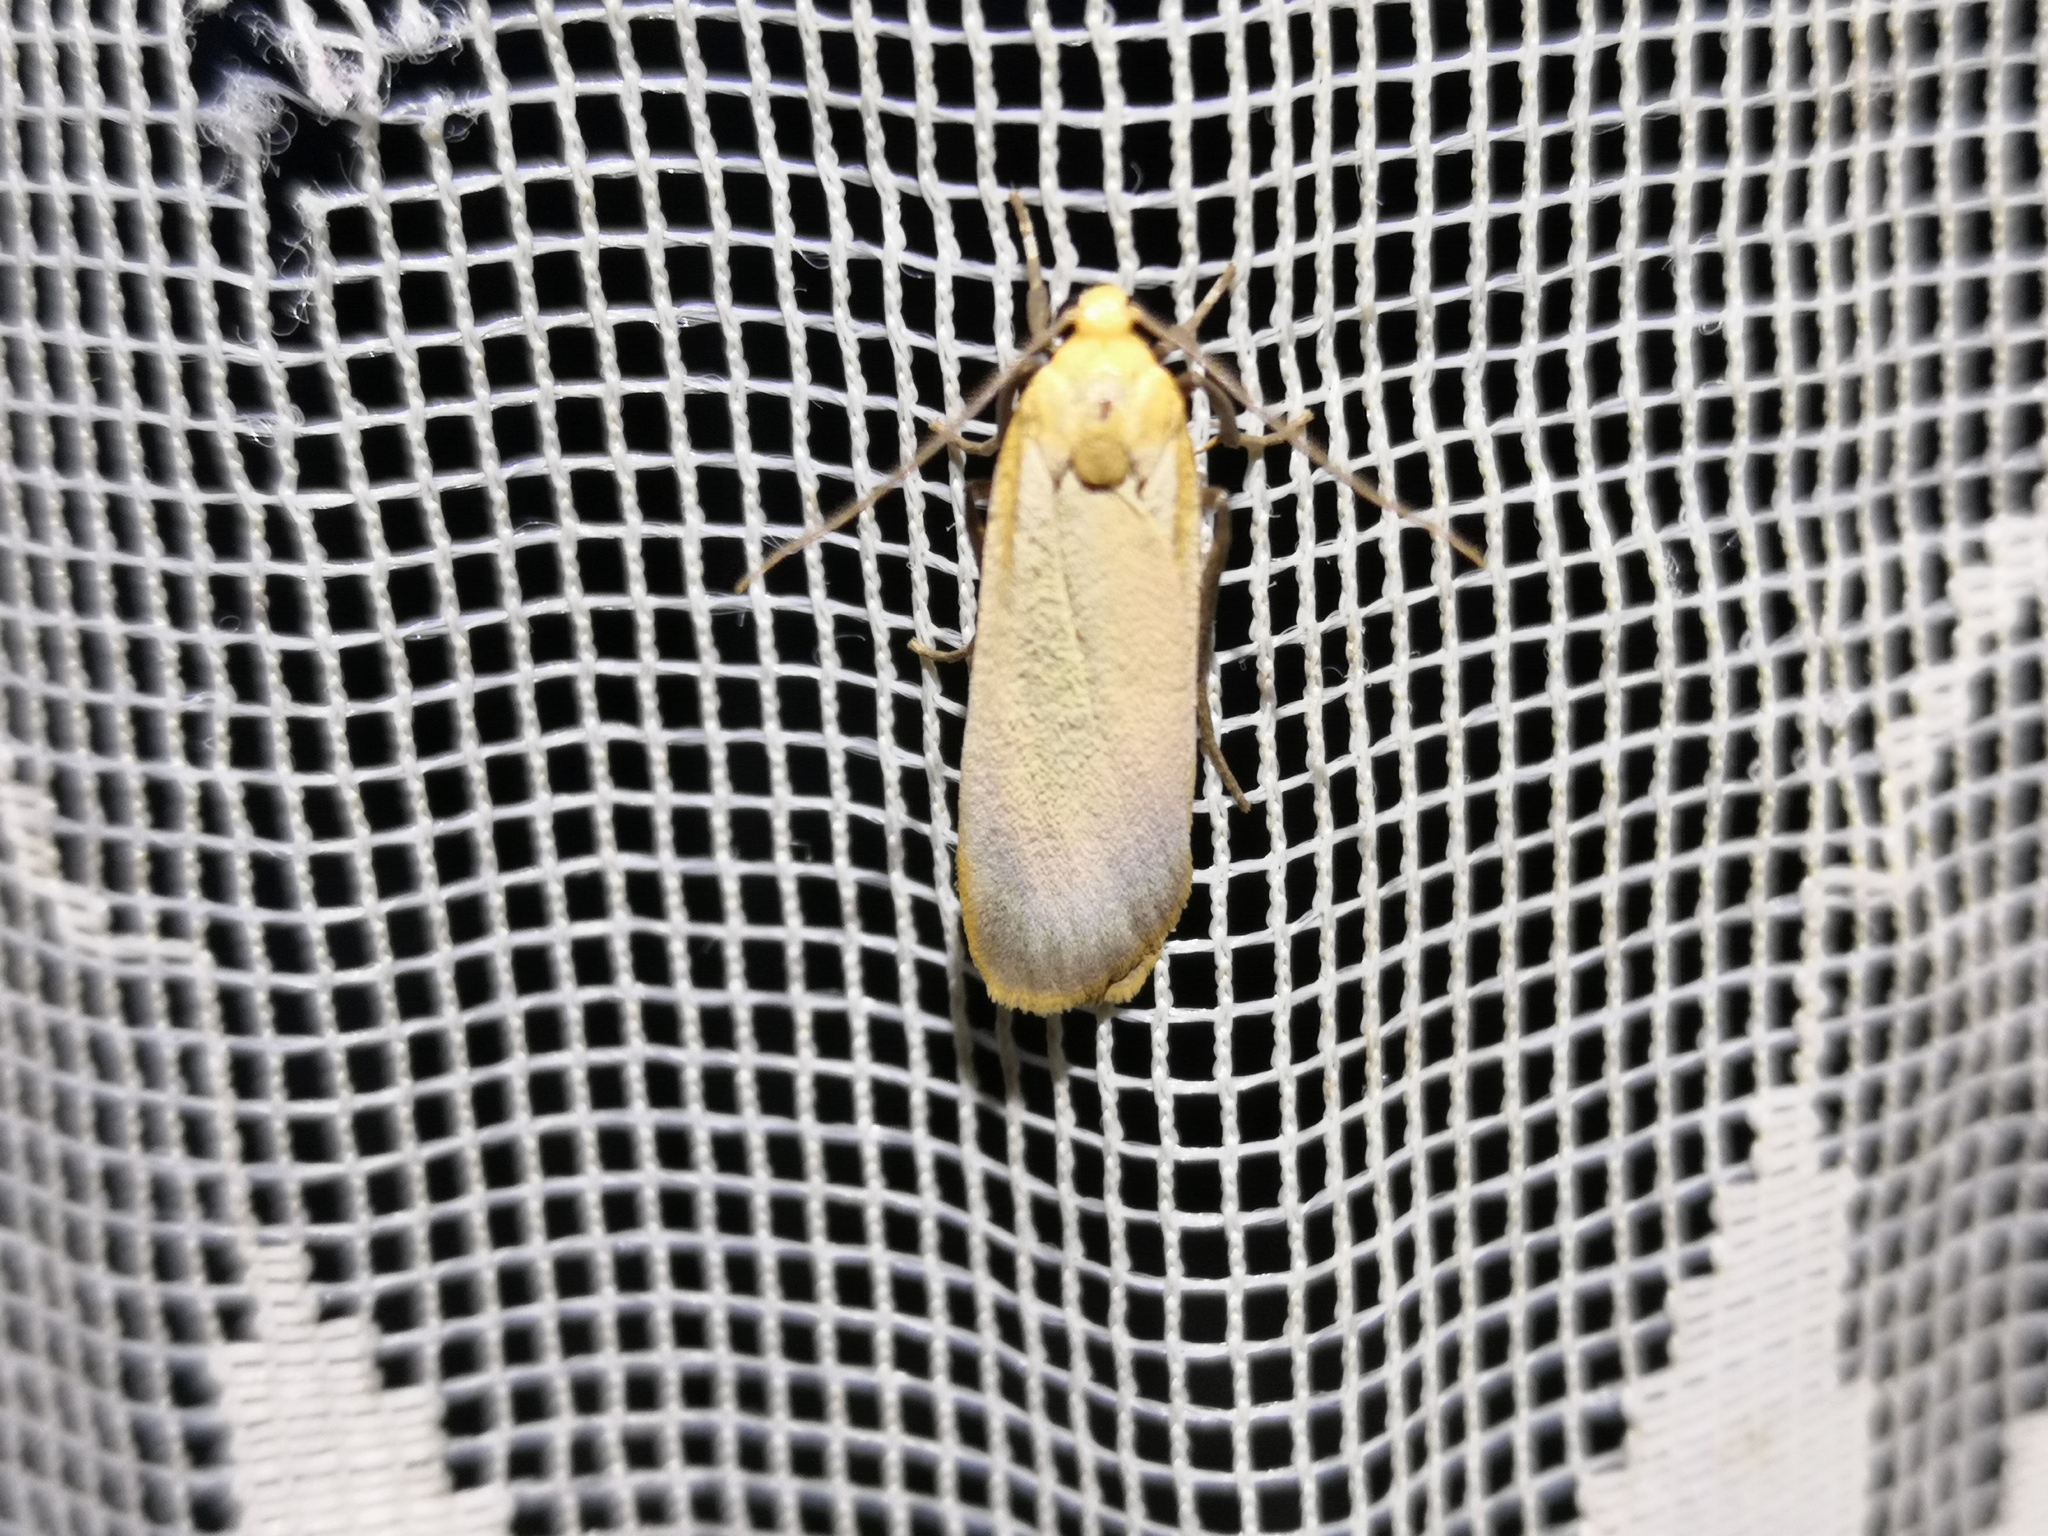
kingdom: Animalia
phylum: Arthropoda
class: Insecta
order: Lepidoptera
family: Erebidae
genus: Katha
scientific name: Katha depressa
